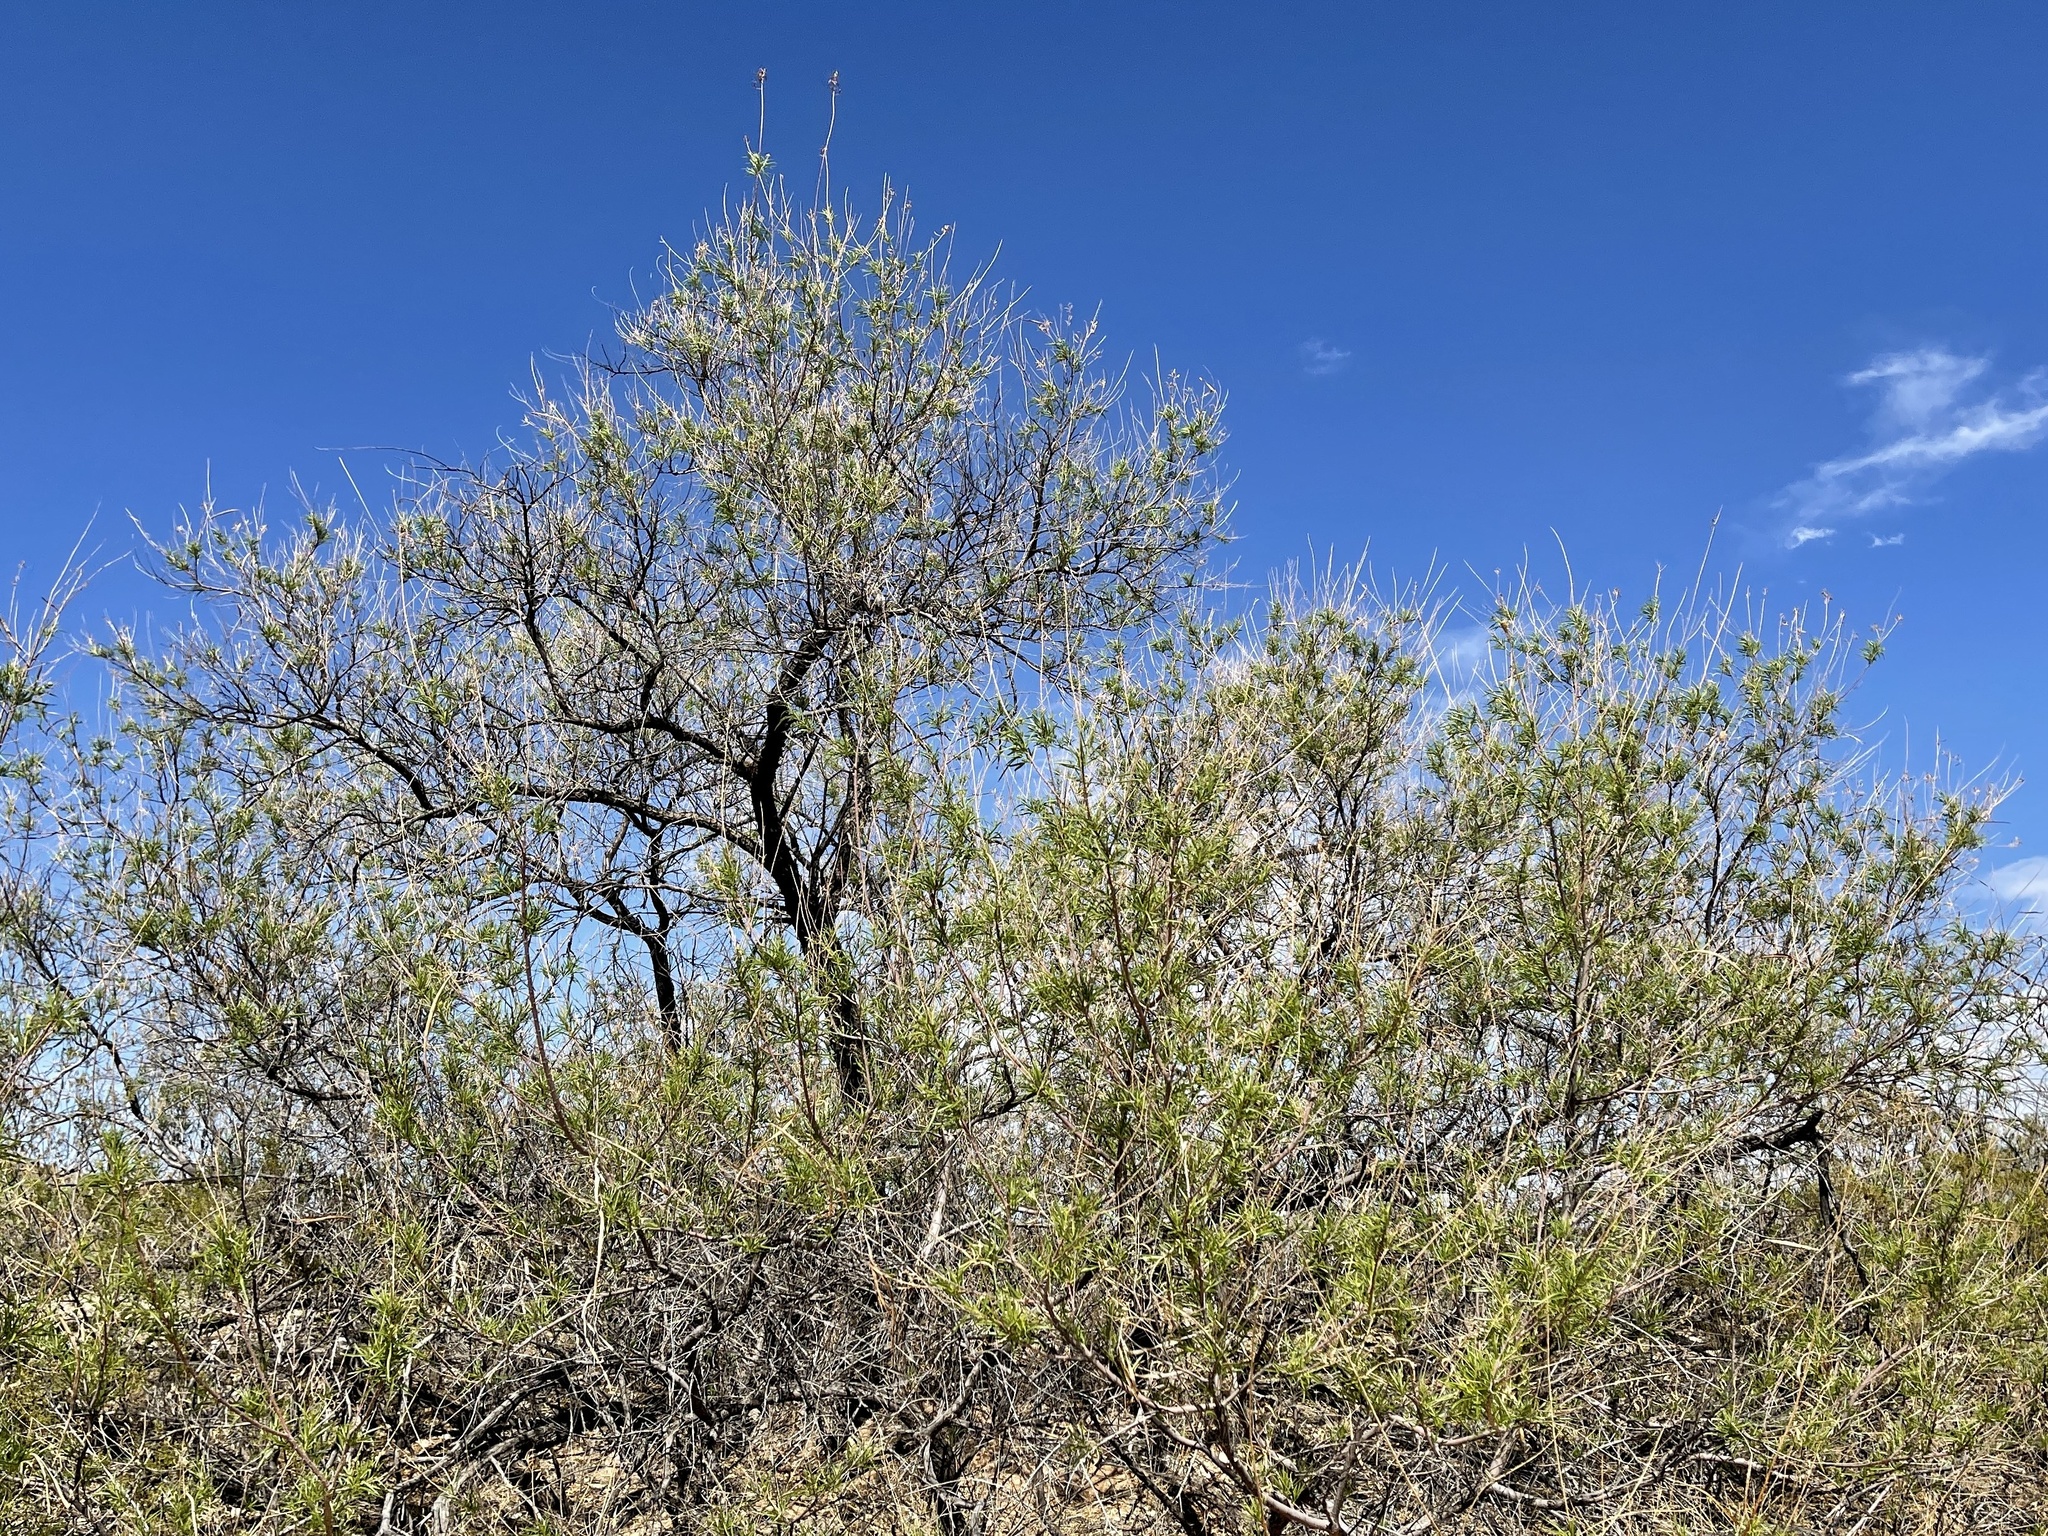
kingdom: Plantae
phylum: Tracheophyta
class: Magnoliopsida
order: Lamiales
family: Bignoniaceae
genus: Chilopsis
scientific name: Chilopsis linearis
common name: Desert-willow
